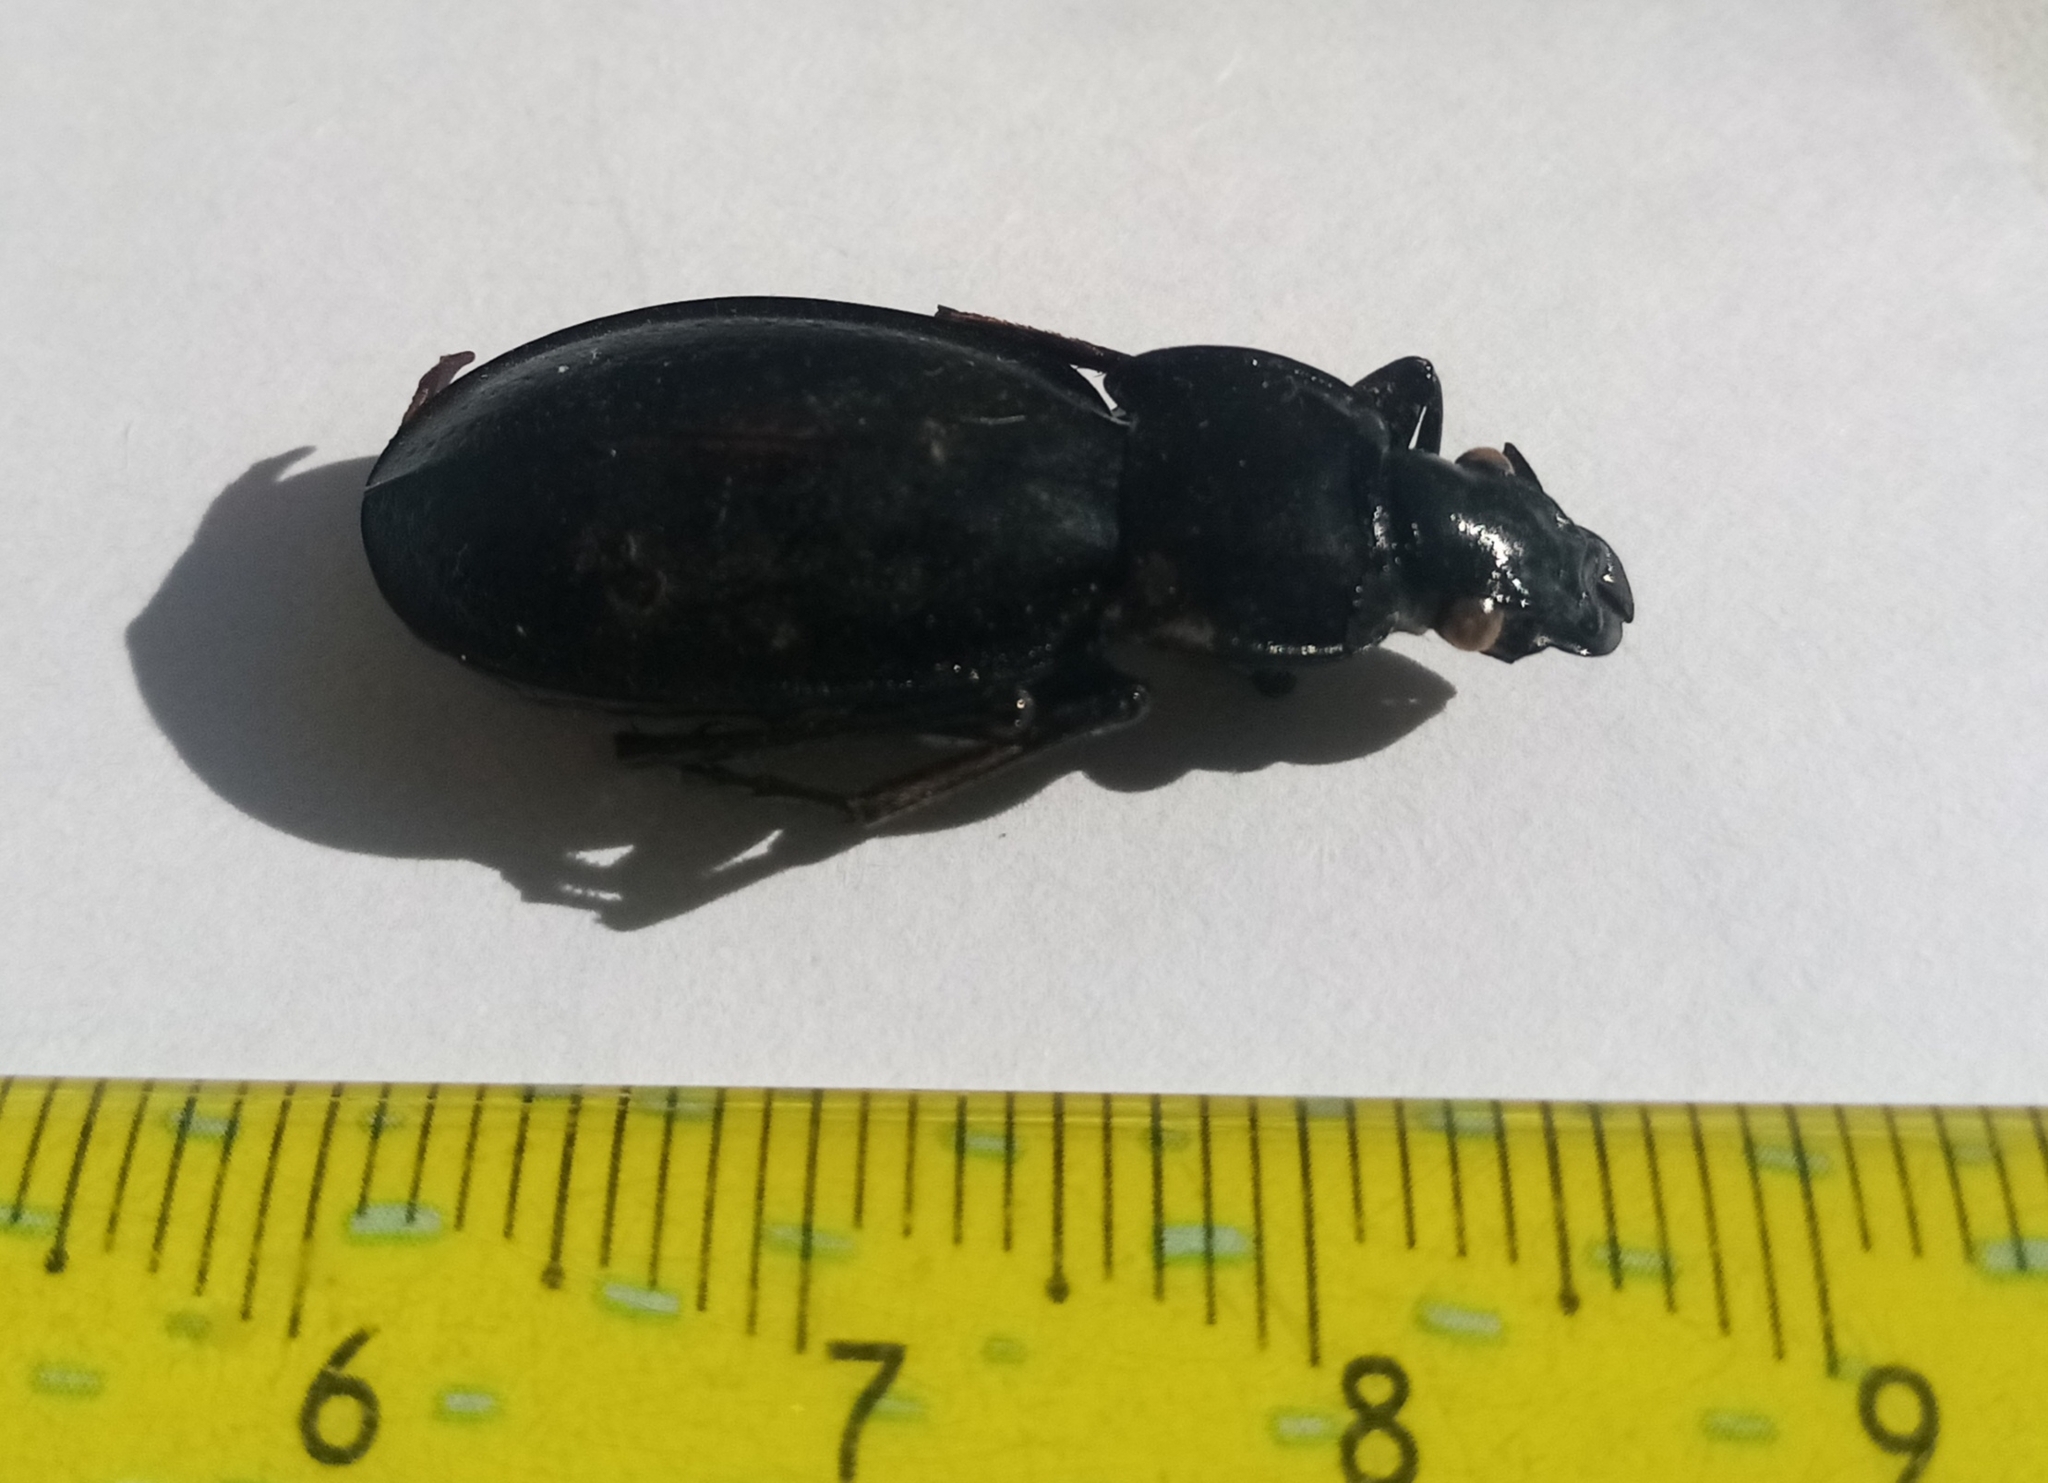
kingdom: Animalia
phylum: Arthropoda
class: Insecta
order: Coleoptera
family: Carabidae
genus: Carabus
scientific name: Carabus perrini
